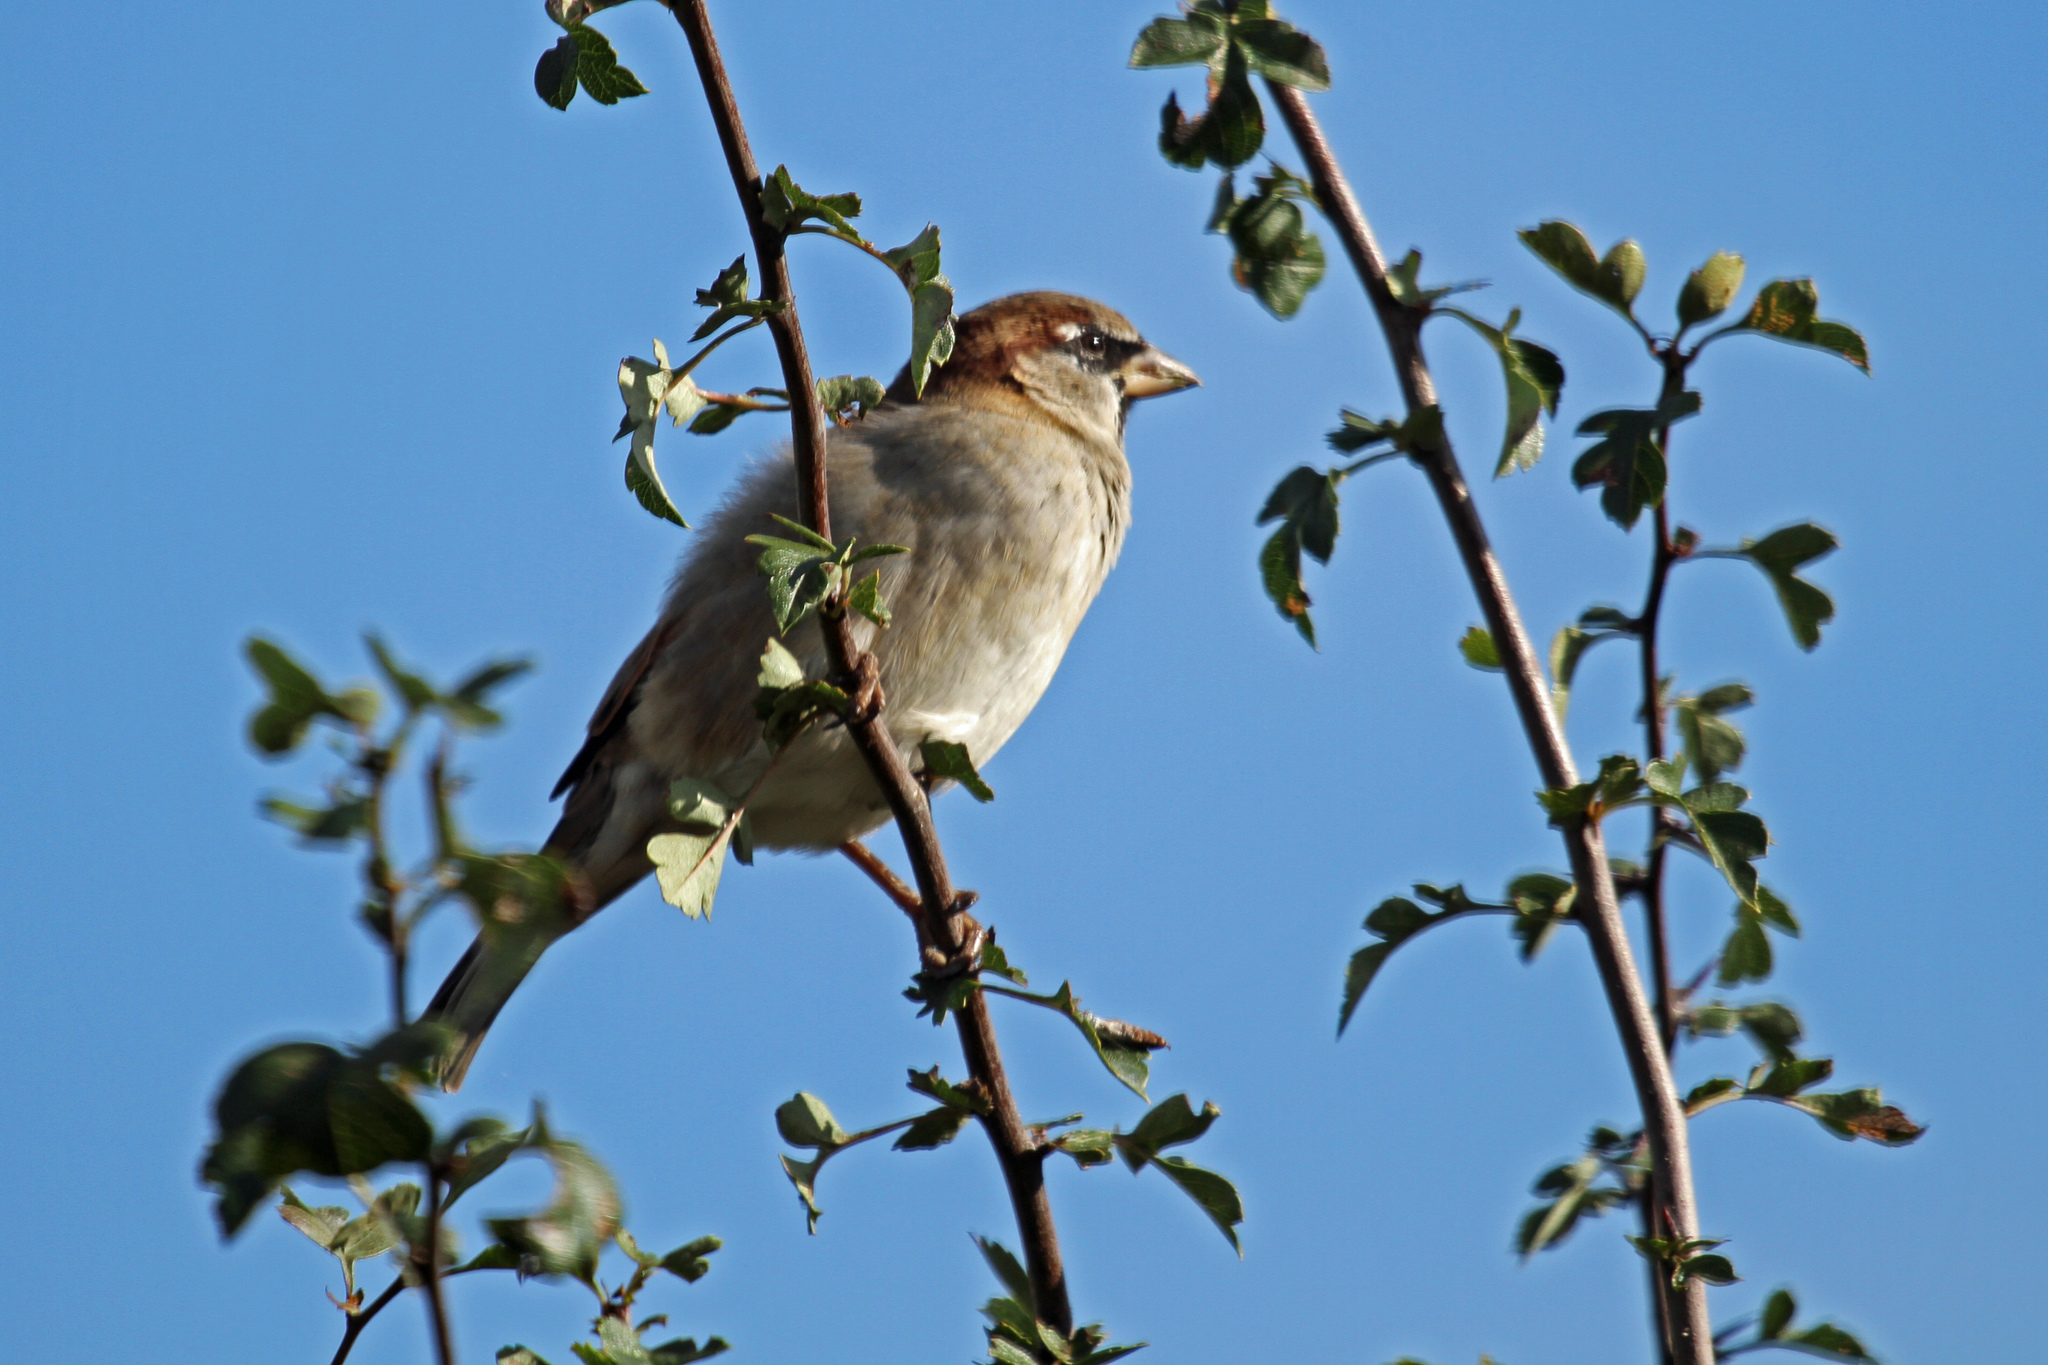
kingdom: Animalia
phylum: Chordata
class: Aves
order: Passeriformes
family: Passeridae
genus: Passer
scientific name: Passer domesticus
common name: House sparrow
